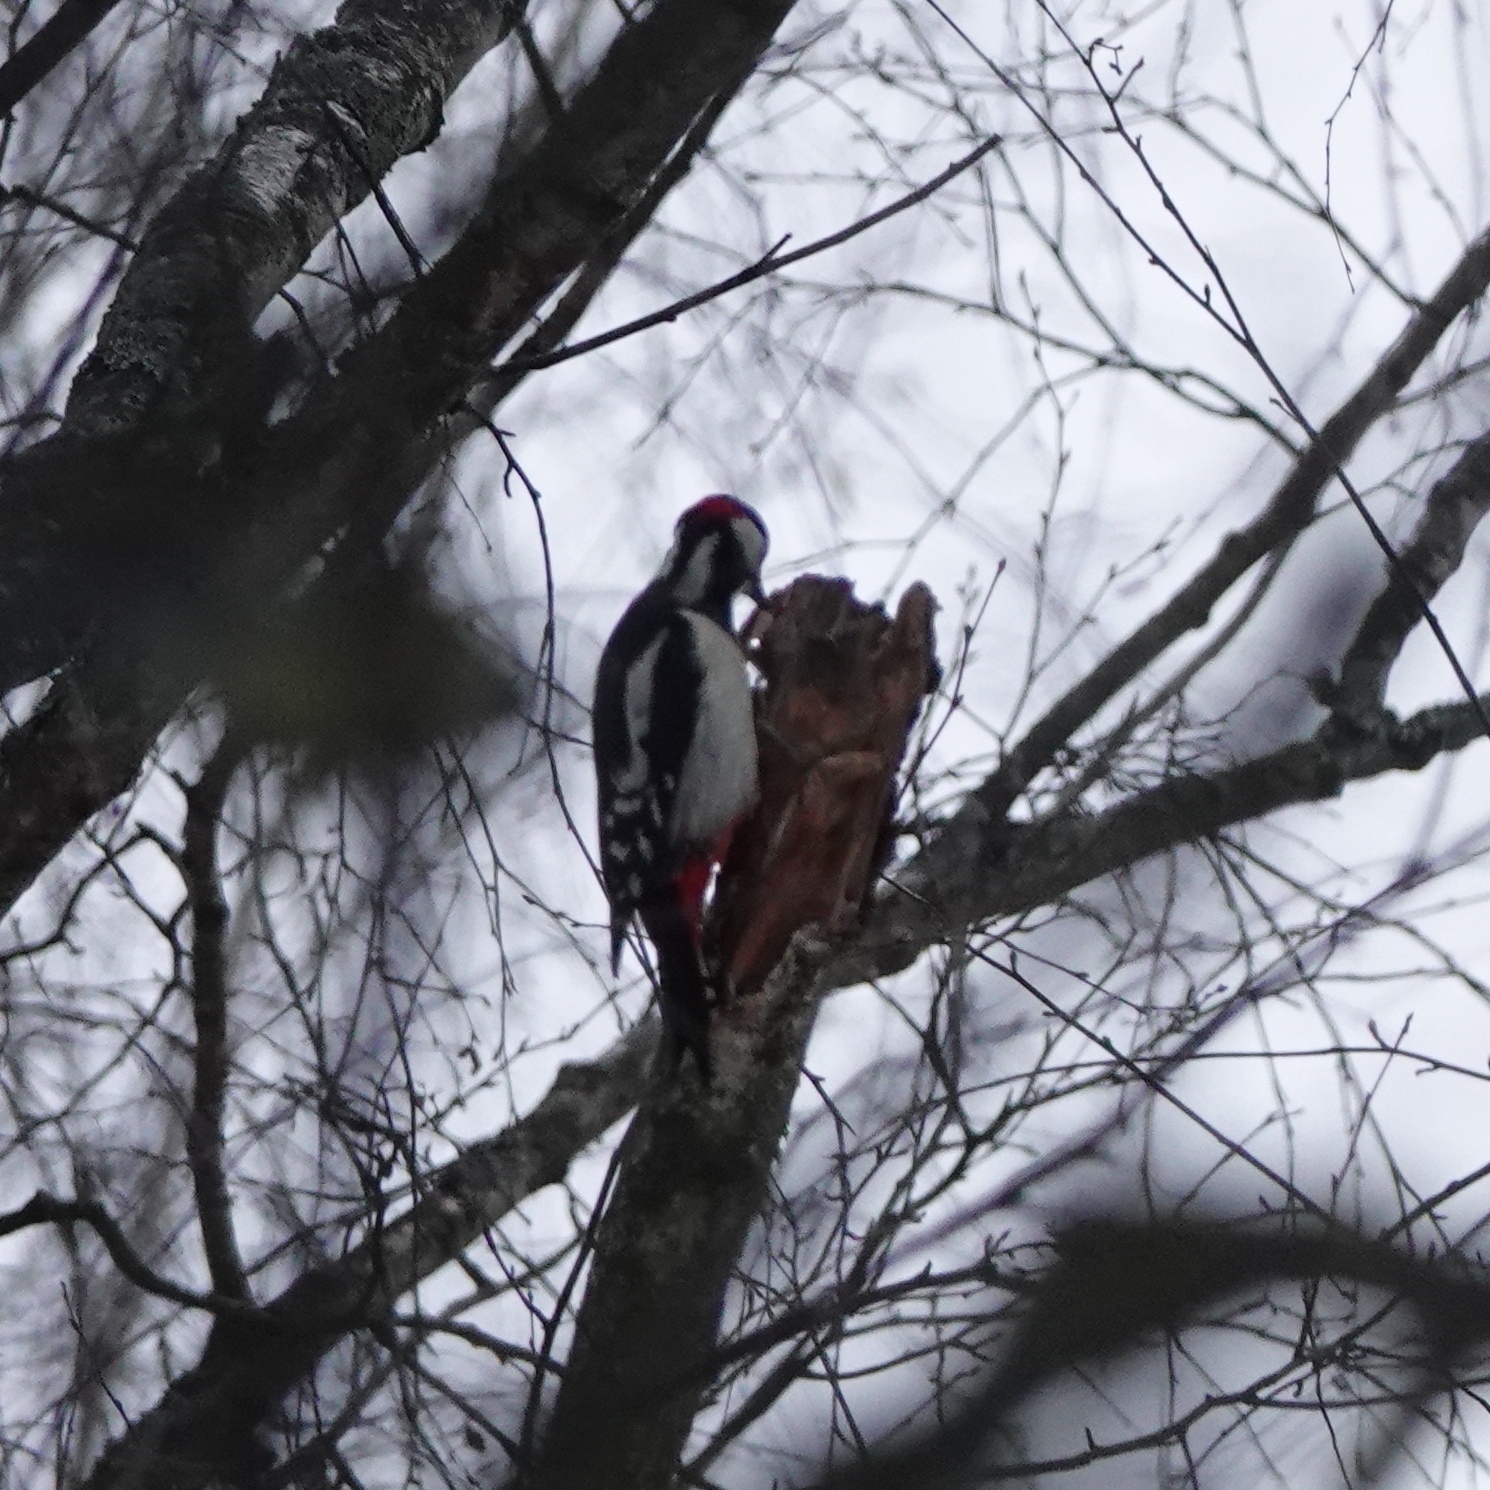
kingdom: Animalia
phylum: Chordata
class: Aves
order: Piciformes
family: Picidae
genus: Dendrocopos
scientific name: Dendrocopos major
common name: Great spotted woodpecker
